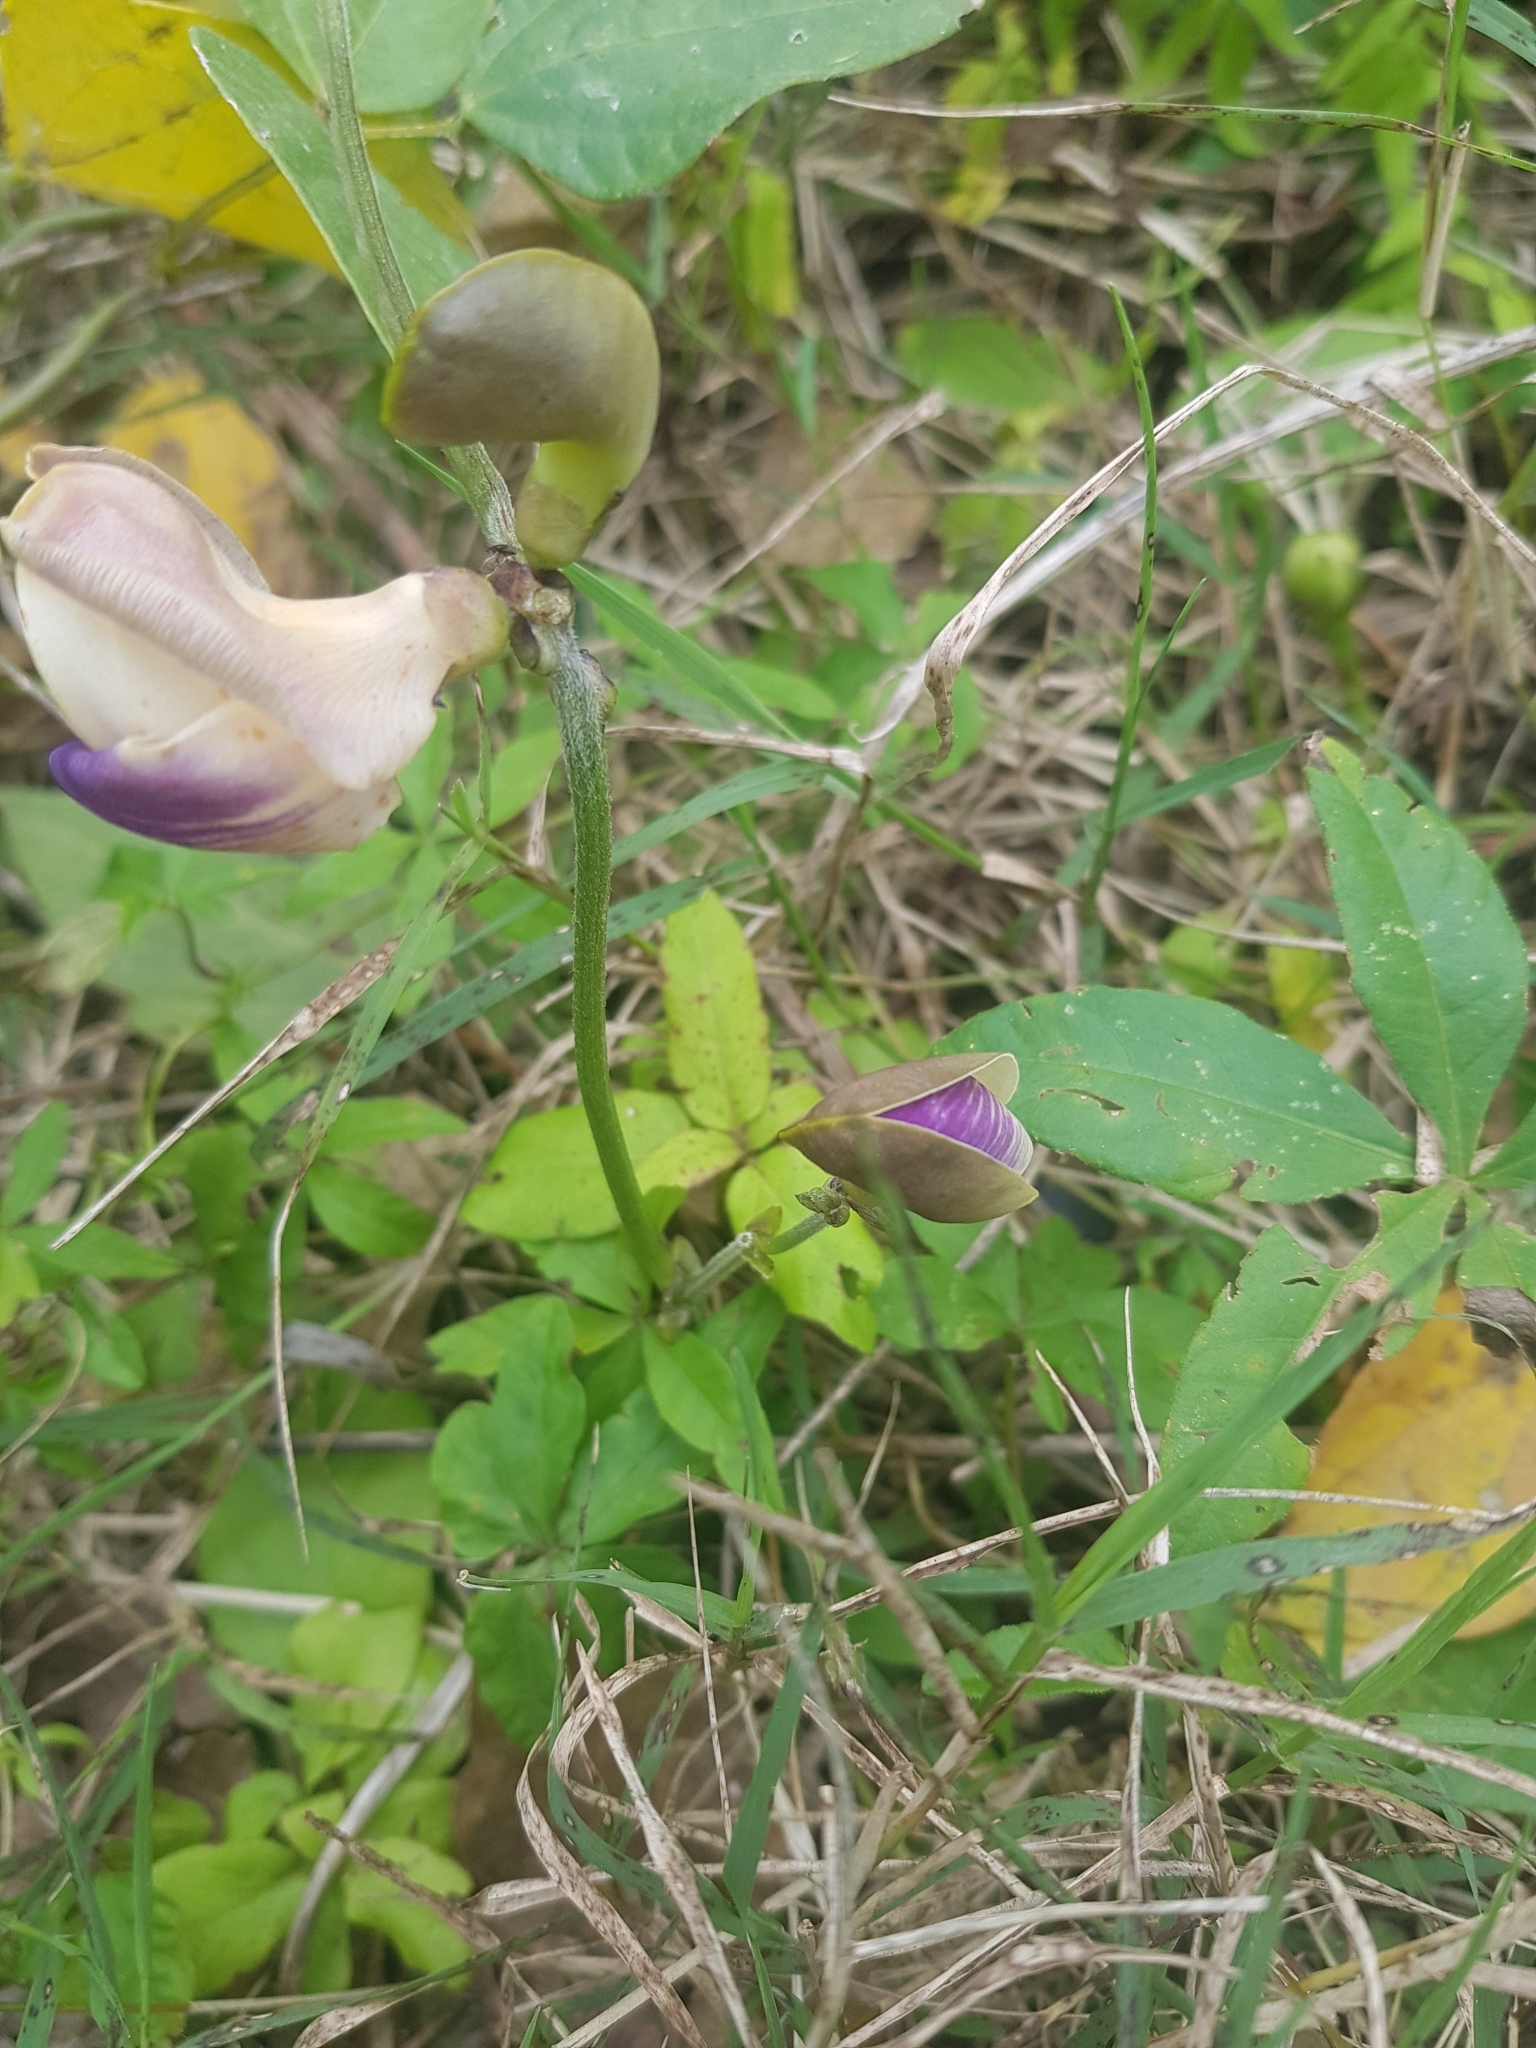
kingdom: Plantae
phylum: Tracheophyta
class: Magnoliopsida
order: Fabales
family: Fabaceae
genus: Leptospron
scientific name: Leptospron adenanthum
